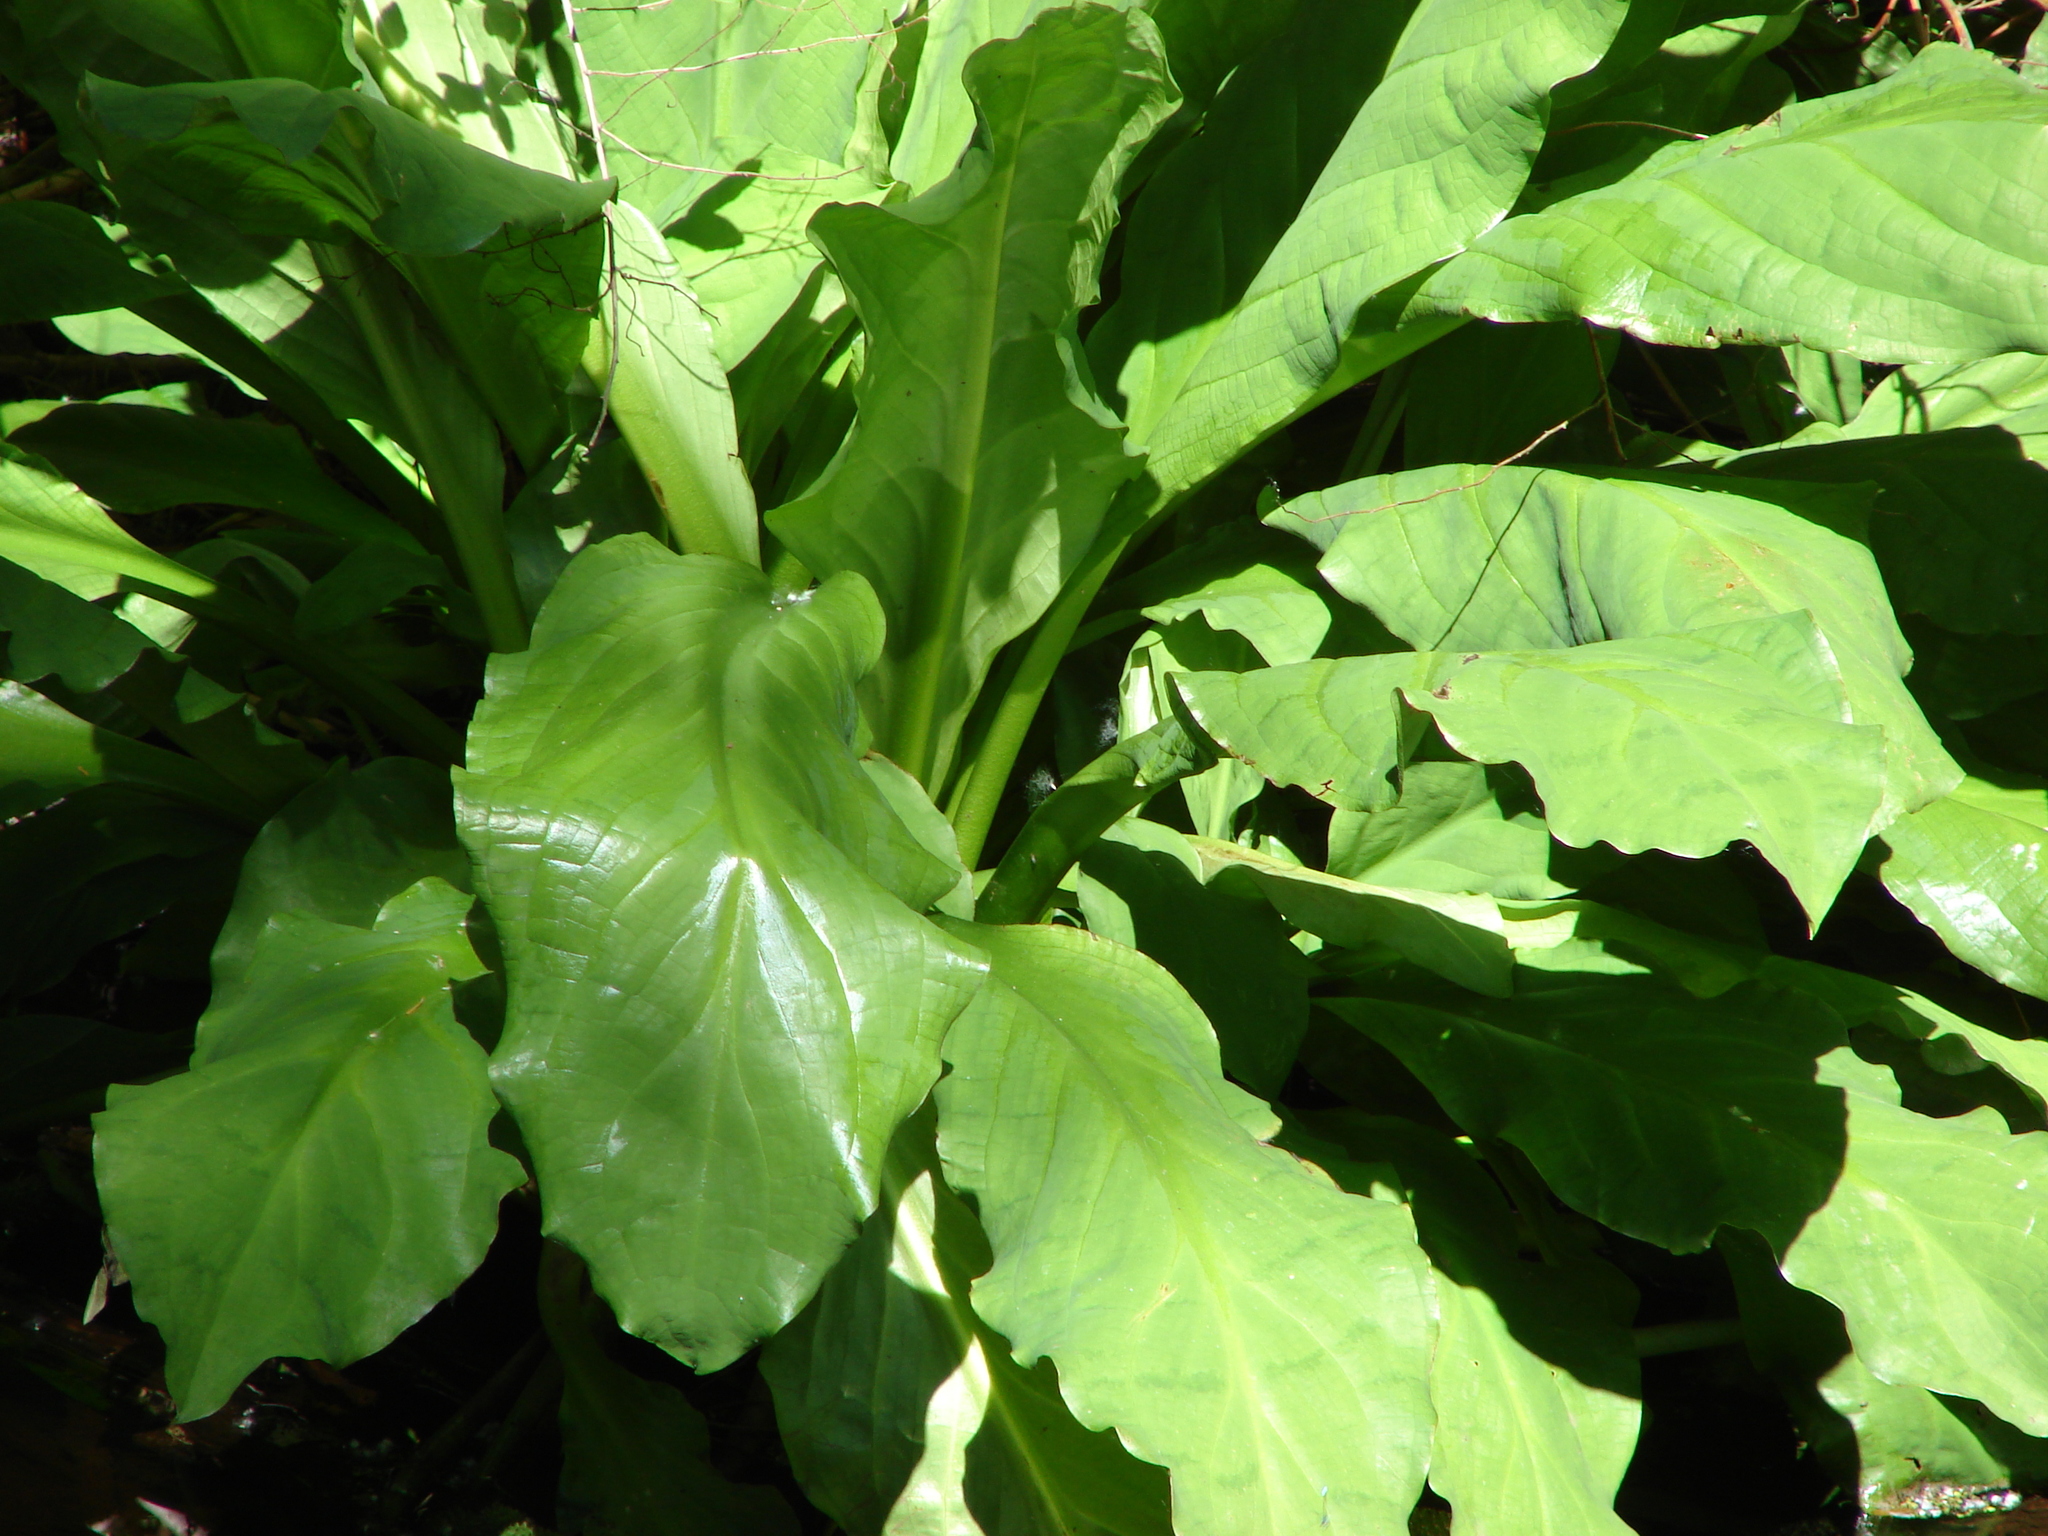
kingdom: Plantae
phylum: Tracheophyta
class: Liliopsida
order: Alismatales
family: Araceae
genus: Lysichiton
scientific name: Lysichiton americanus
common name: American skunk cabbage
